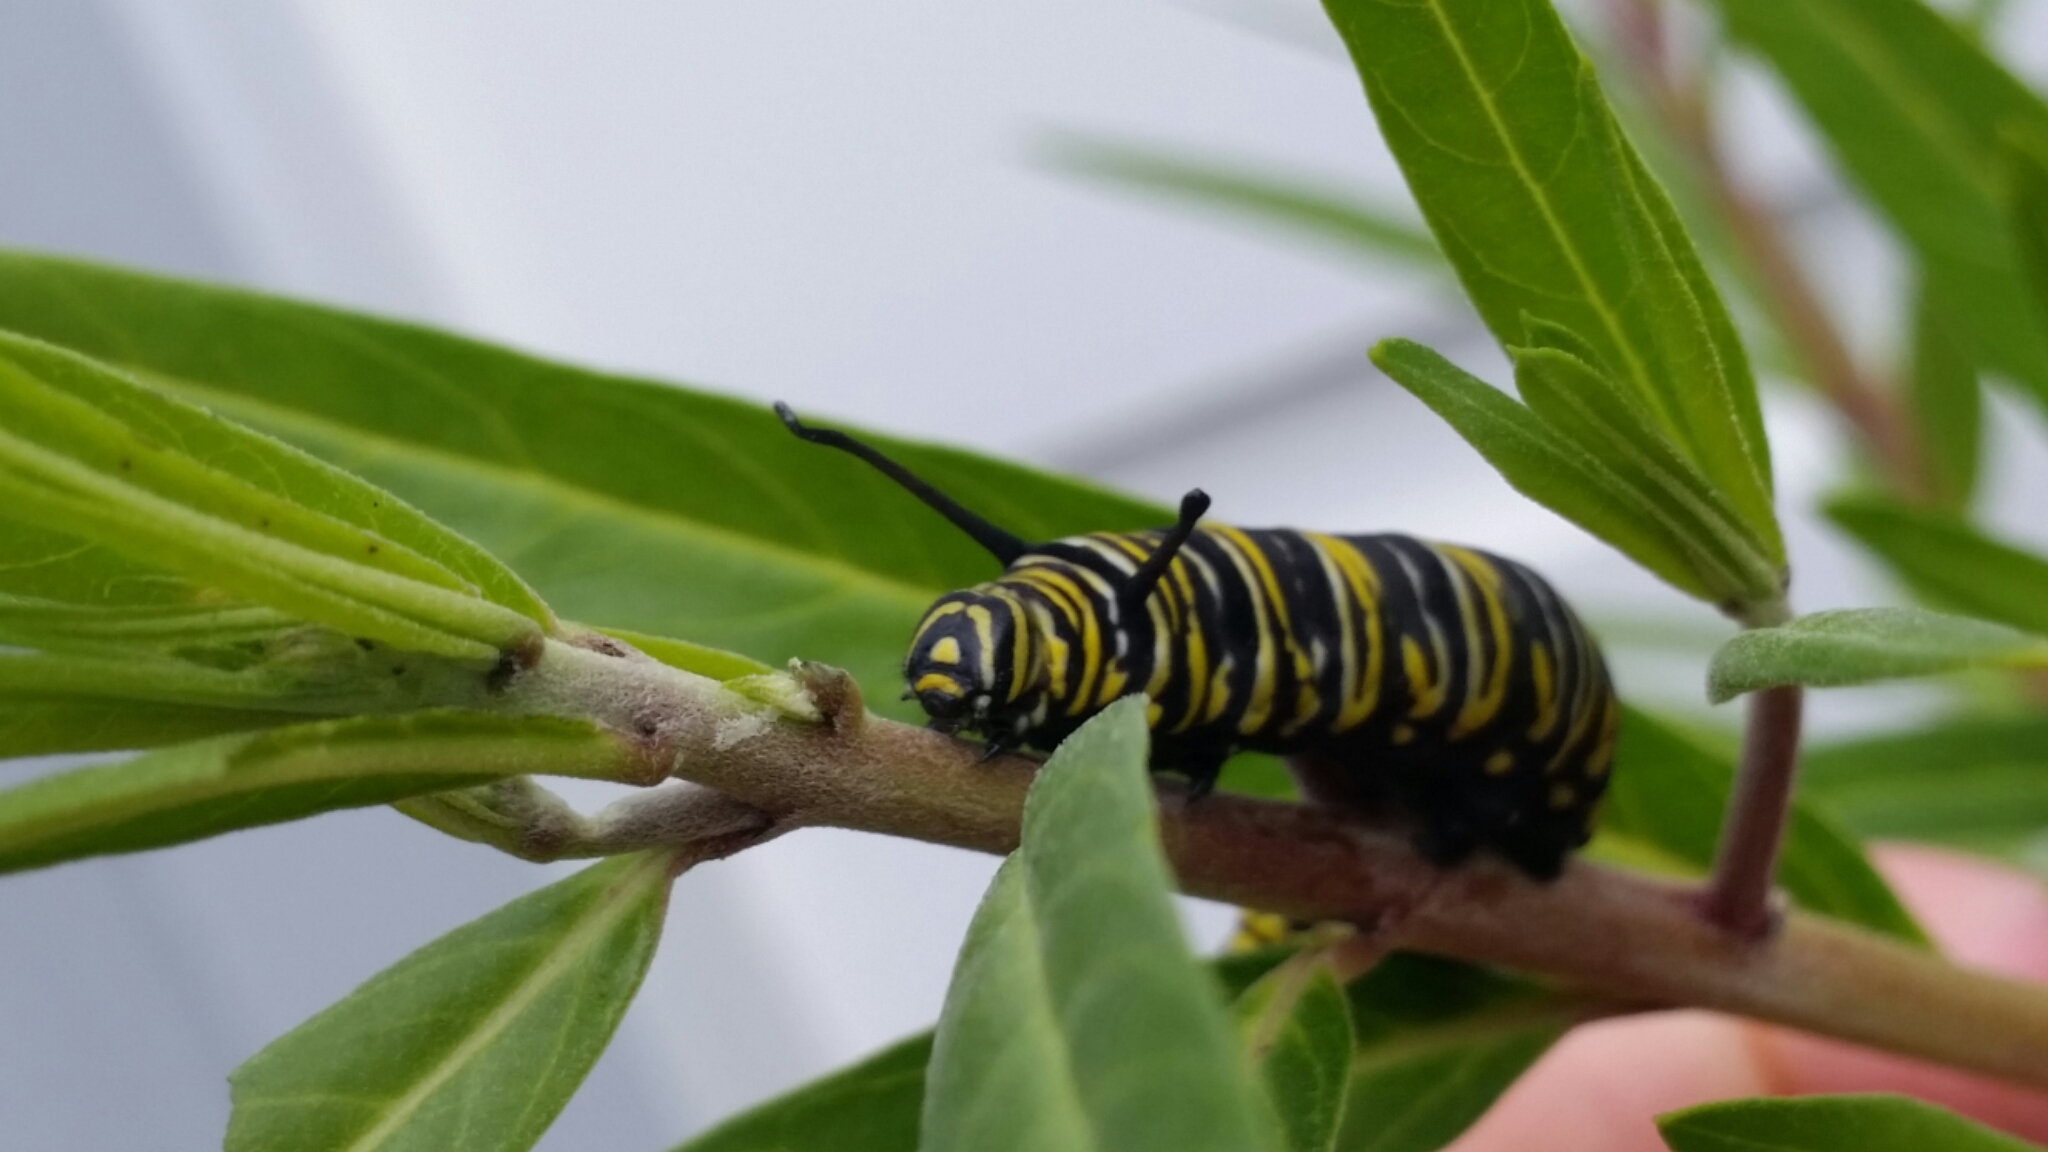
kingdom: Animalia
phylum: Arthropoda
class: Insecta
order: Lepidoptera
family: Nymphalidae
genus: Danaus
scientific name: Danaus plexippus
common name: Monarch
